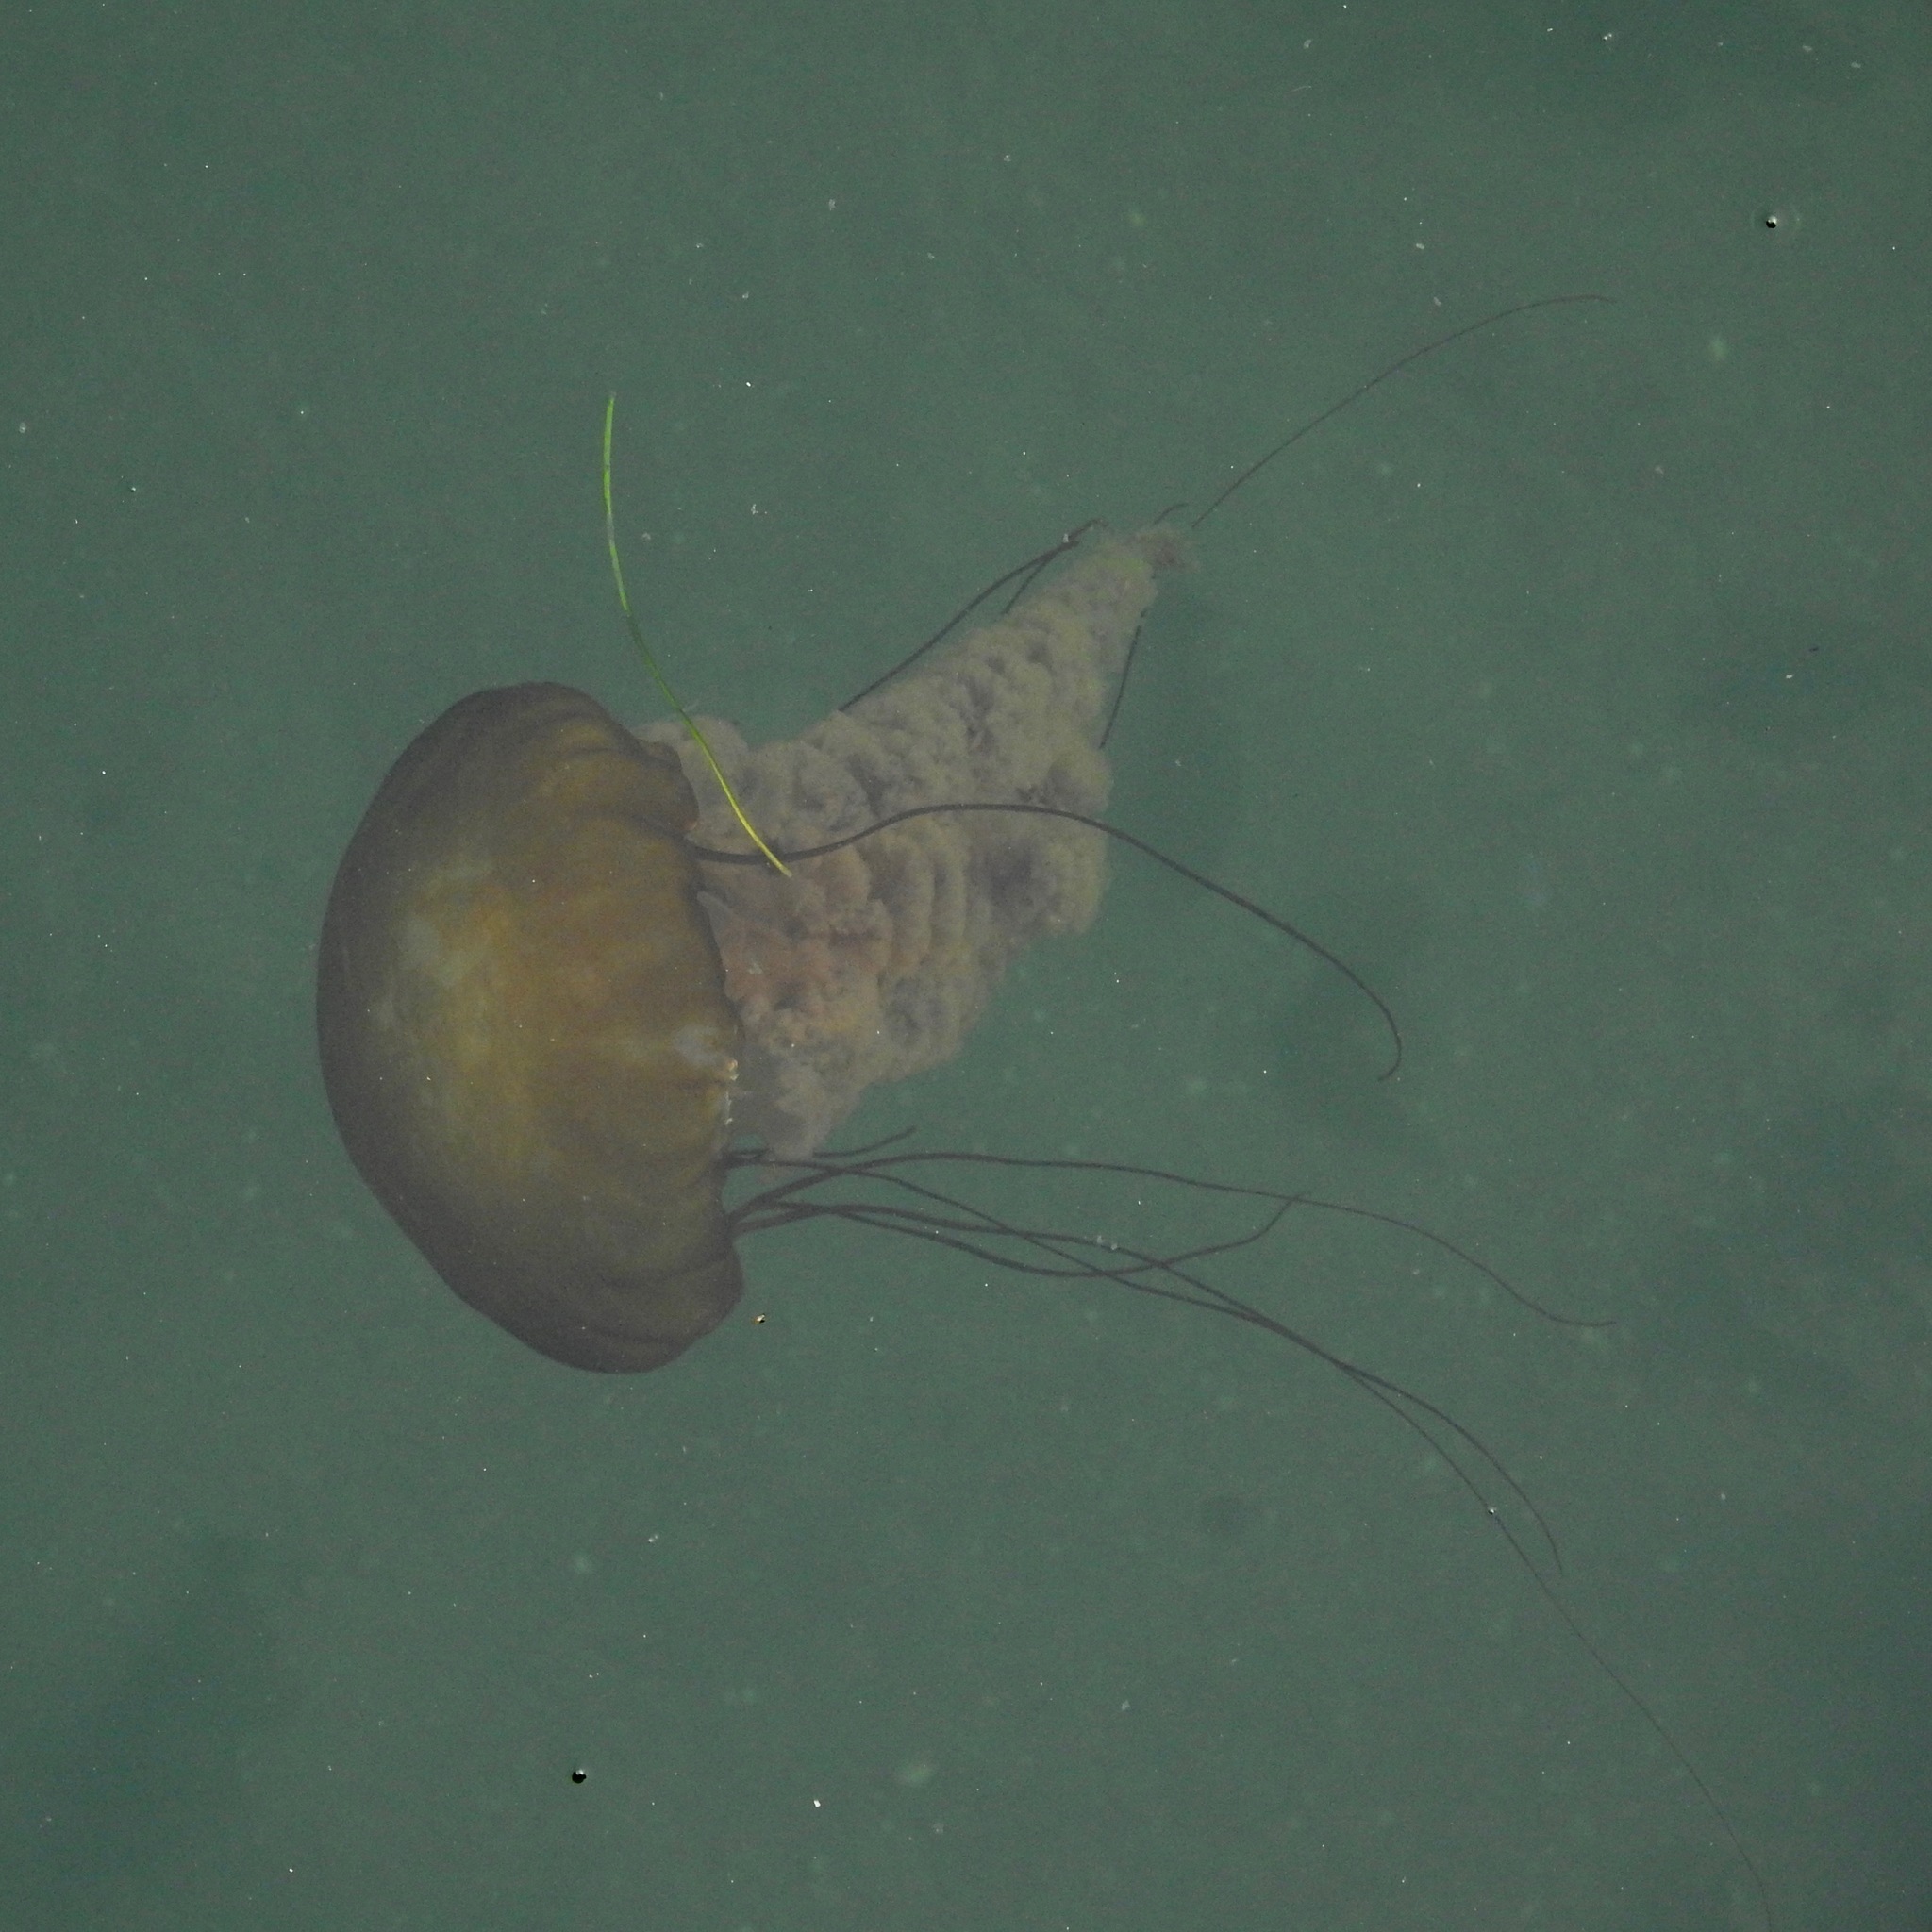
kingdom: Animalia
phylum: Cnidaria
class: Scyphozoa
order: Semaeostomeae
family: Pelagiidae
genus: Chrysaora
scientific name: Chrysaora fuscescens
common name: Sea nettle
